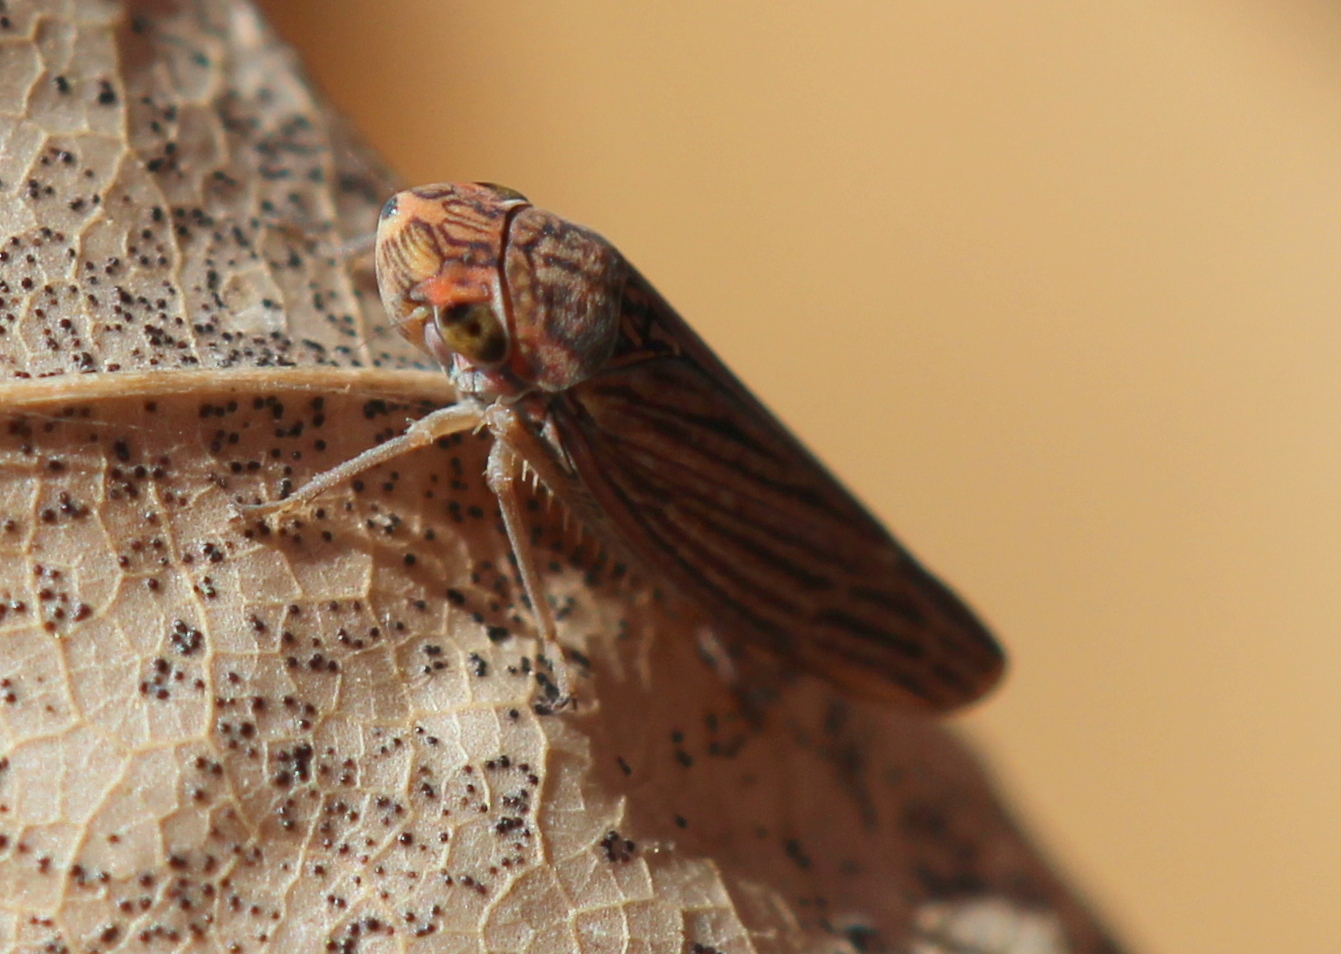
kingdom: Animalia
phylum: Arthropoda
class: Insecta
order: Hemiptera
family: Cicadellidae
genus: Neokolla
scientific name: Neokolla hieroglyphica
